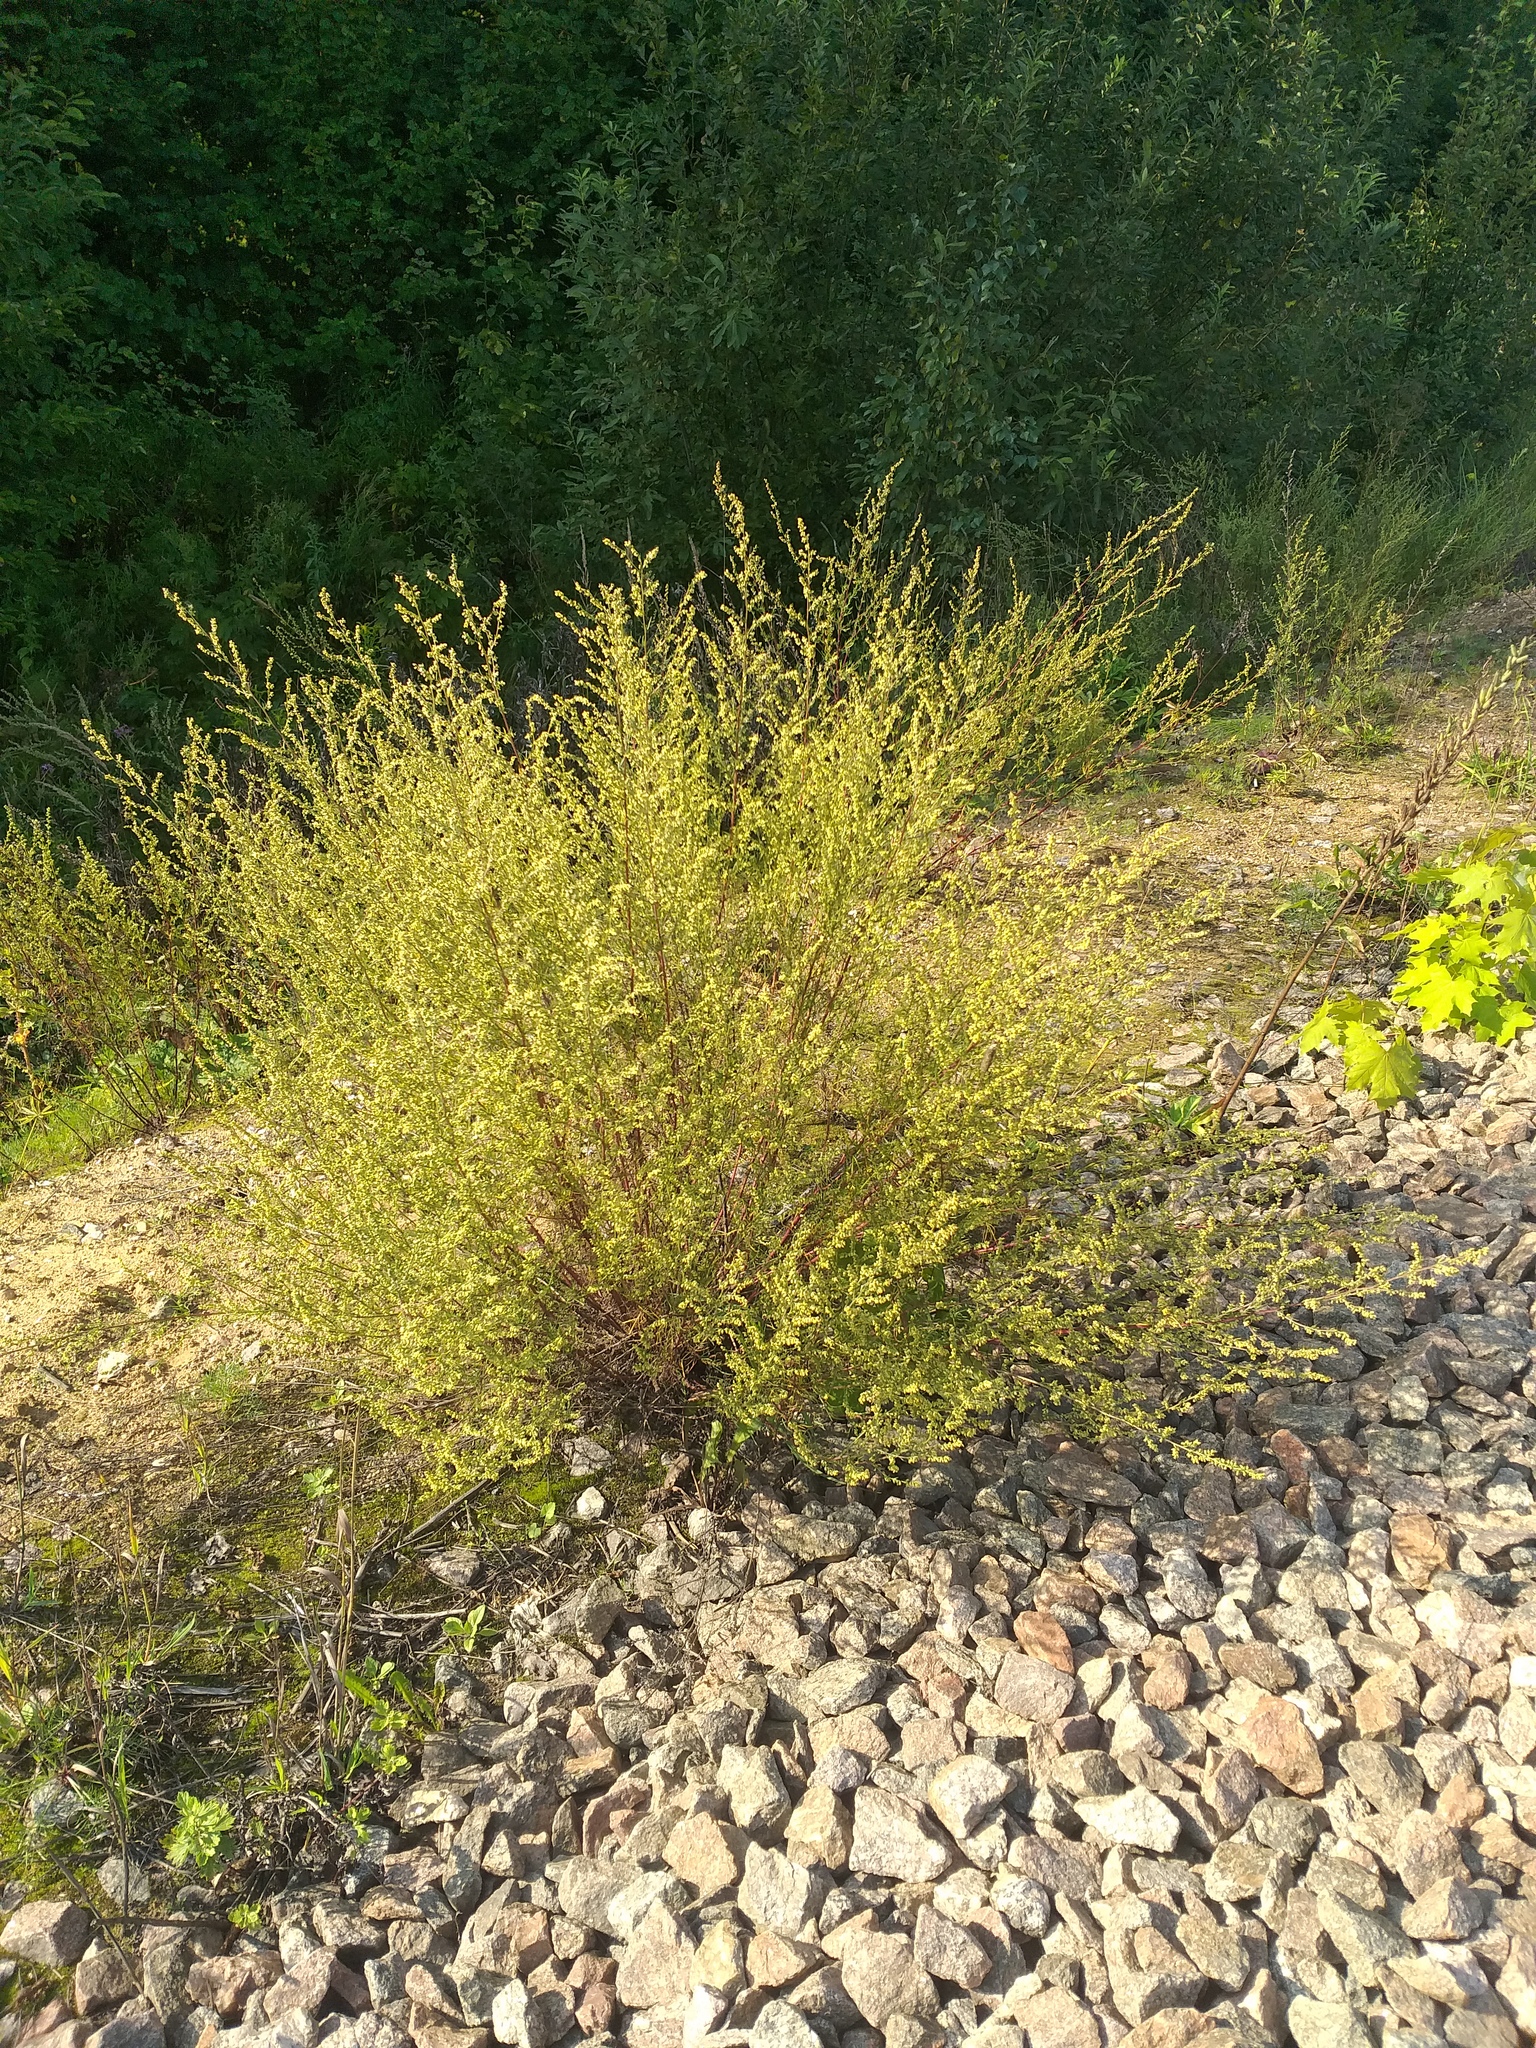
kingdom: Plantae
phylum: Tracheophyta
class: Magnoliopsida
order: Asterales
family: Asteraceae
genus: Artemisia
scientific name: Artemisia campestris
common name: Field wormwood
